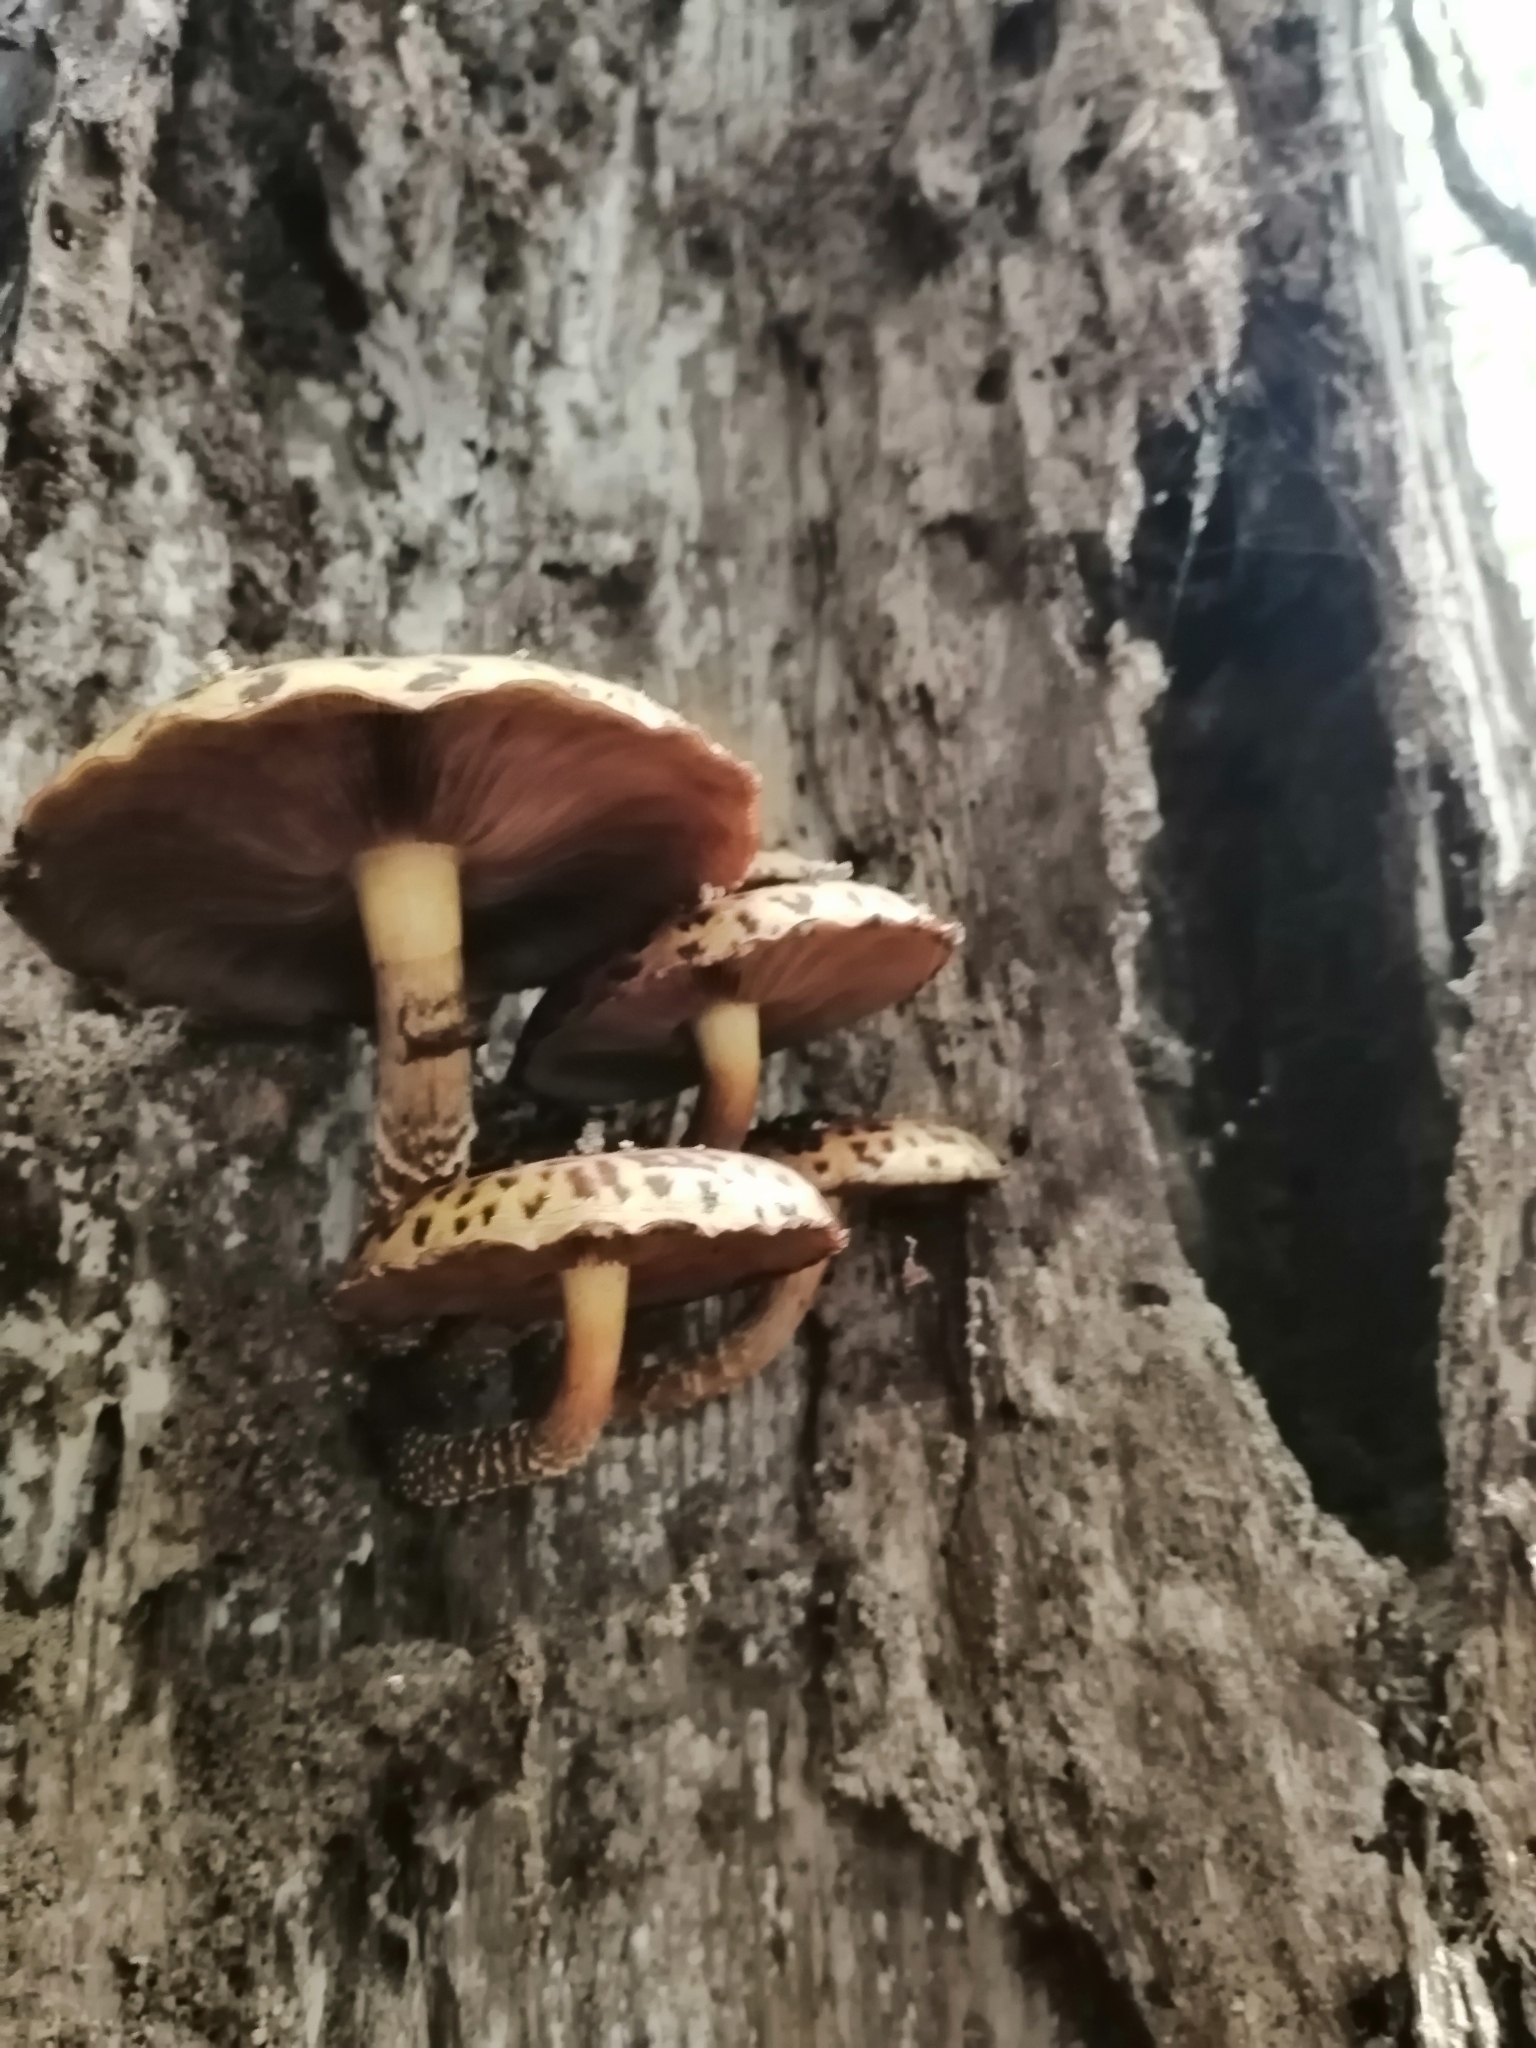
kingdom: Fungi
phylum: Basidiomycota
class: Agaricomycetes
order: Agaricales
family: Strophariaceae
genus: Pholiota
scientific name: Pholiota glutinosa
